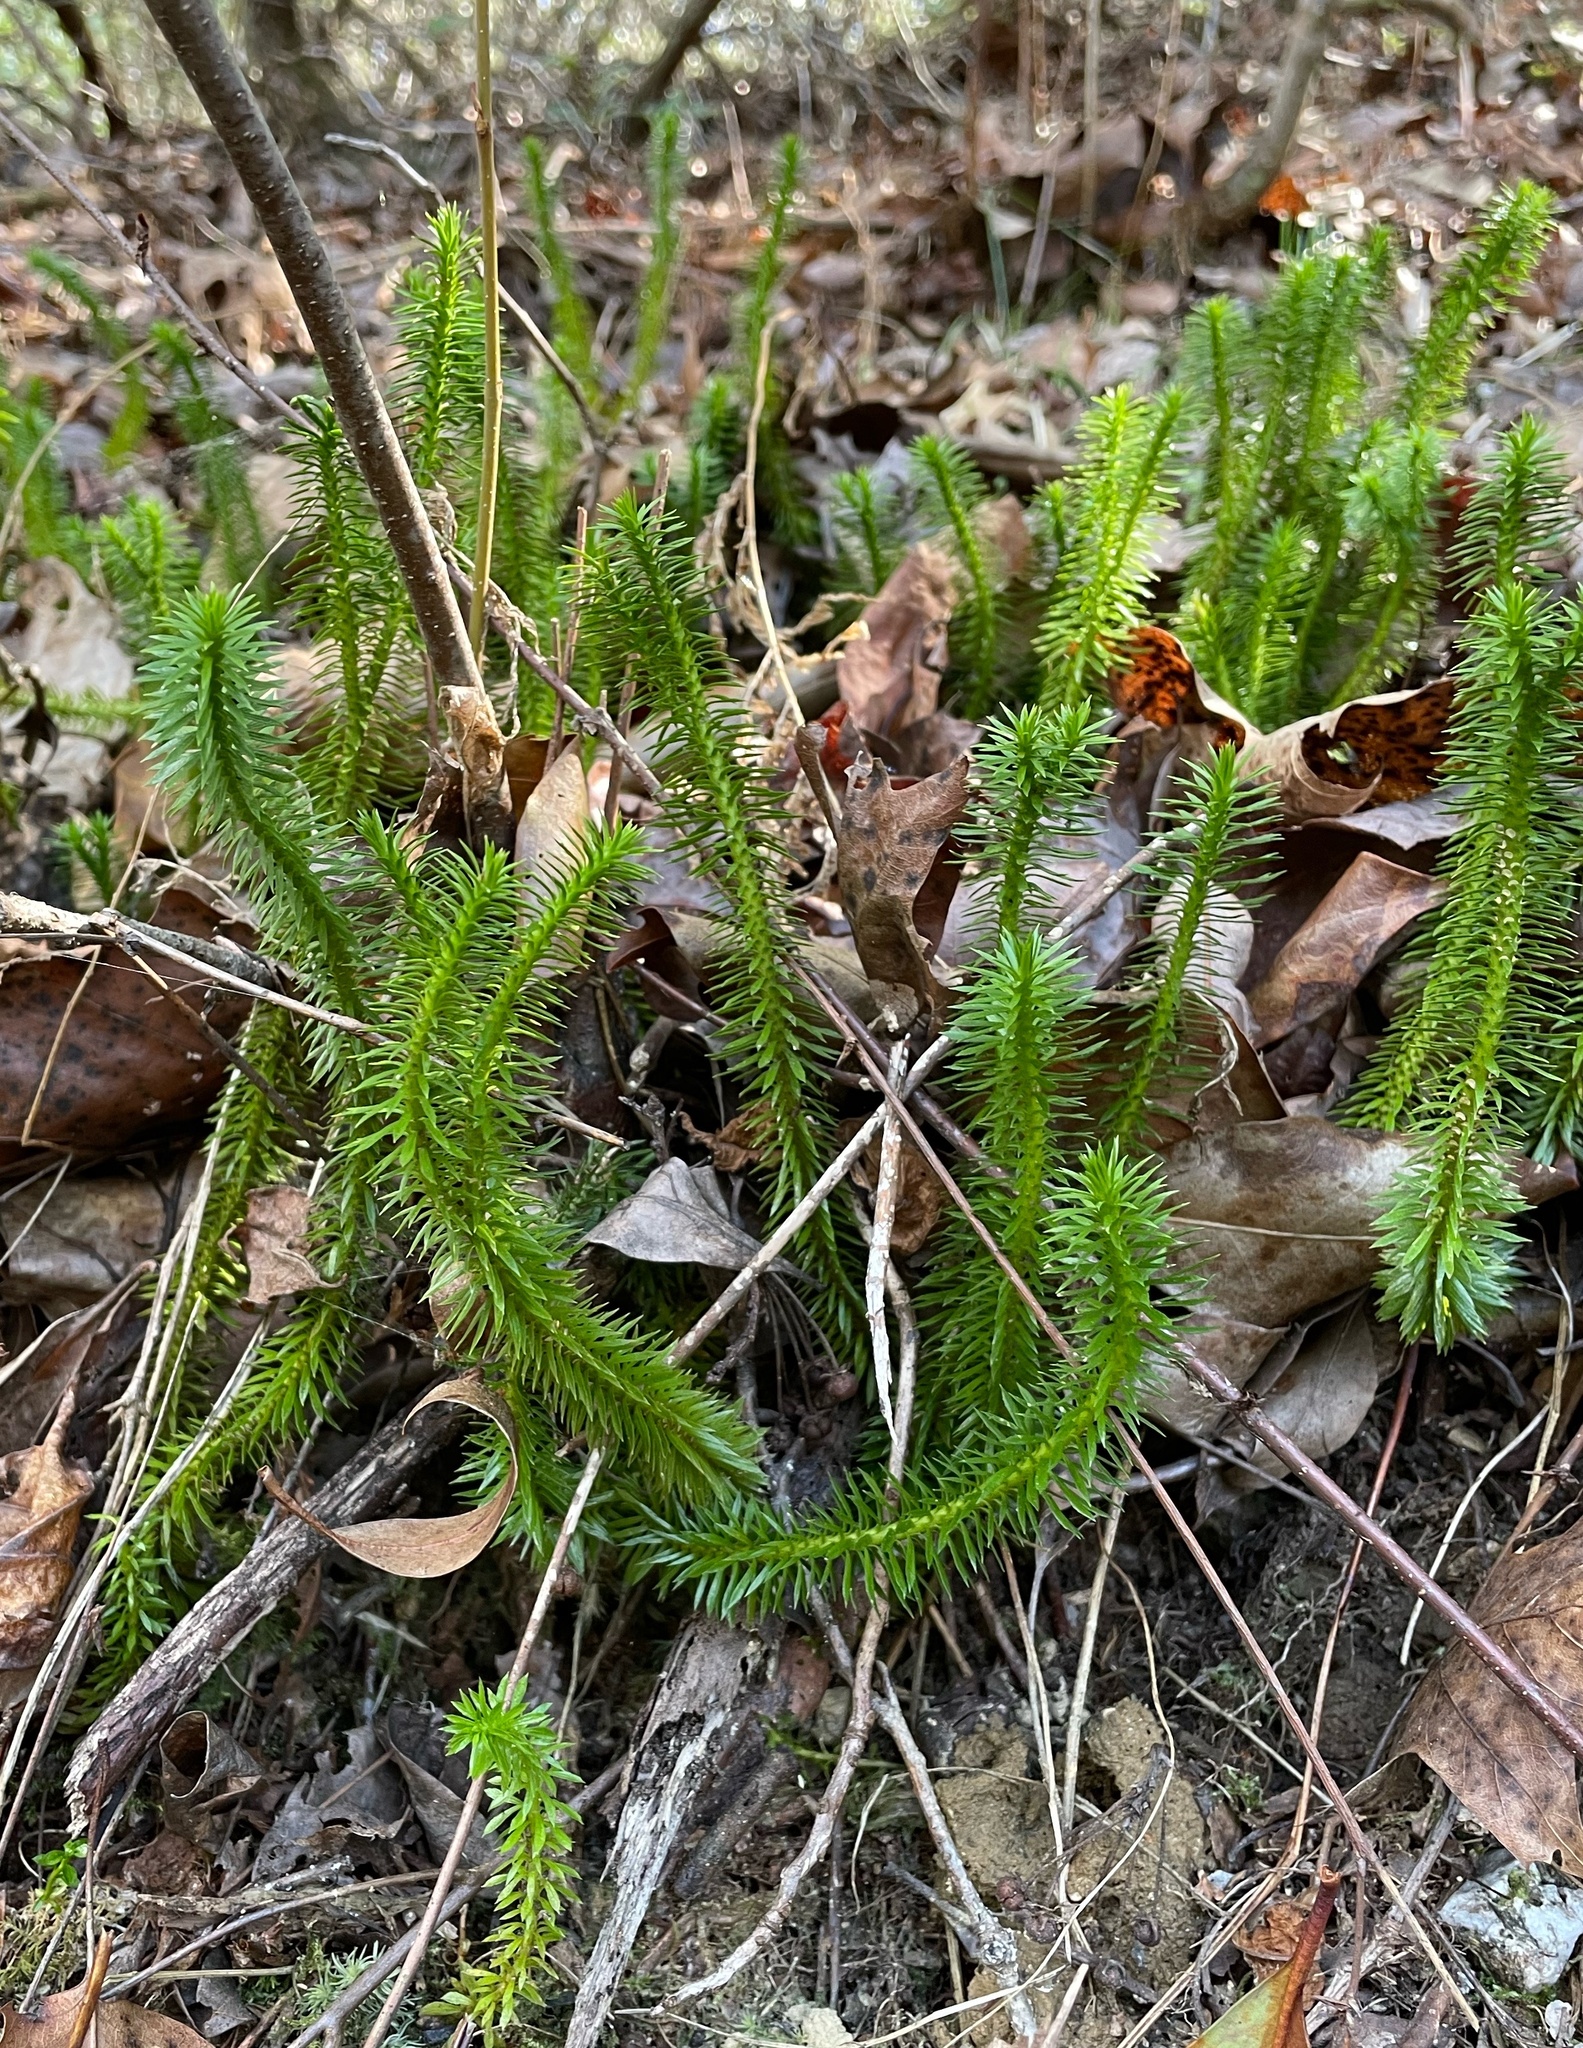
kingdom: Plantae
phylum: Tracheophyta
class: Lycopodiopsida
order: Lycopodiales
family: Lycopodiaceae
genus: Huperzia
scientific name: Huperzia lucidula
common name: Shining clubmoss
